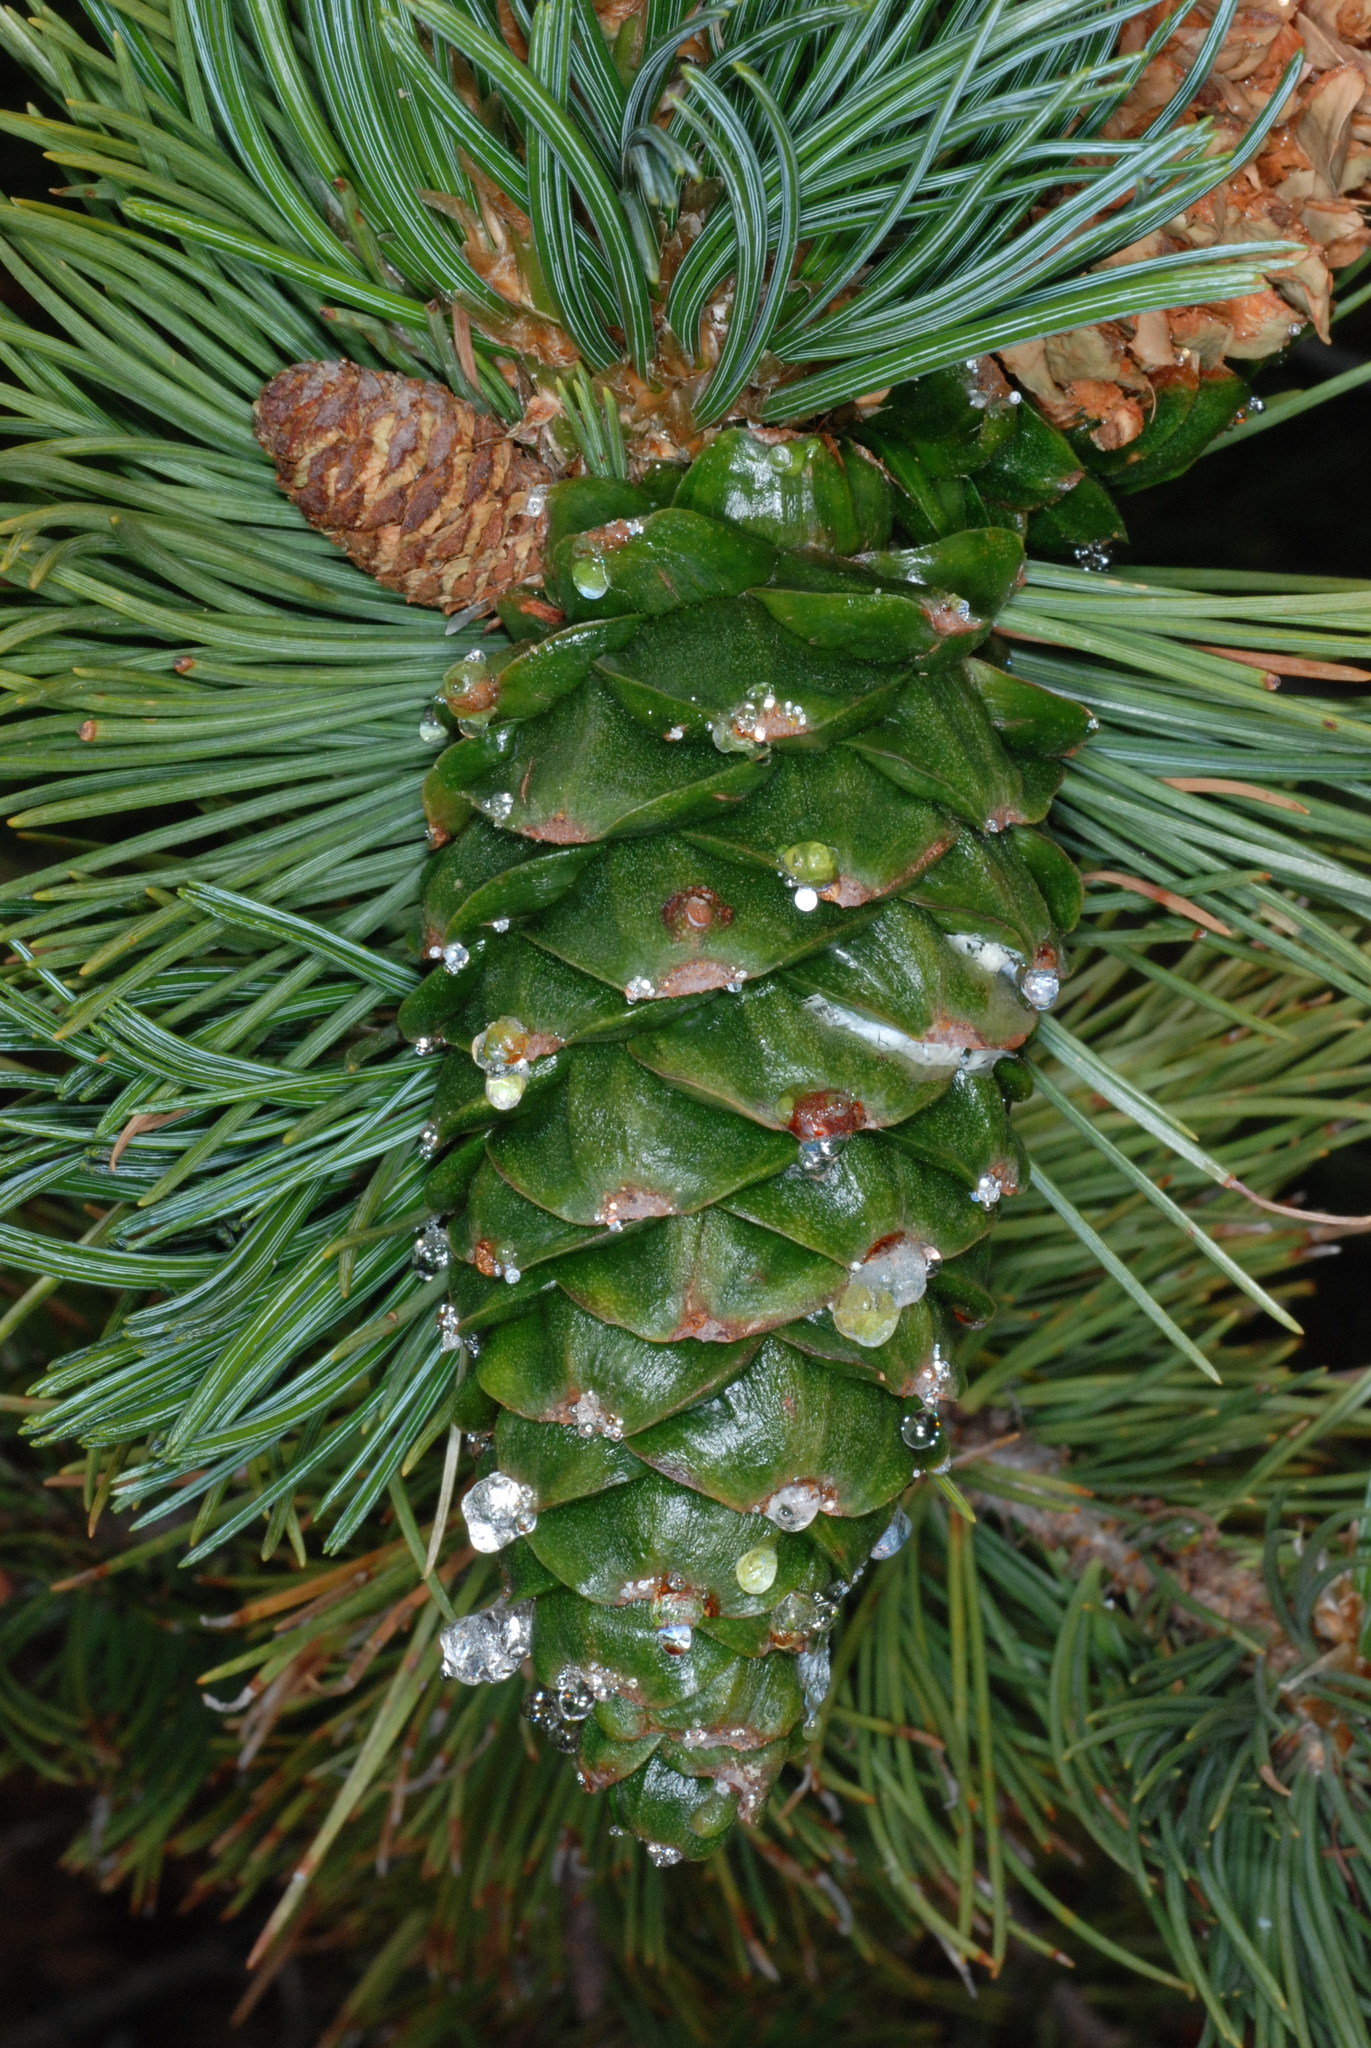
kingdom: Plantae
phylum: Tracheophyta
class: Pinopsida
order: Pinales
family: Pinaceae
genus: Pinus
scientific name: Pinus flexilis
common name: Limber pine
